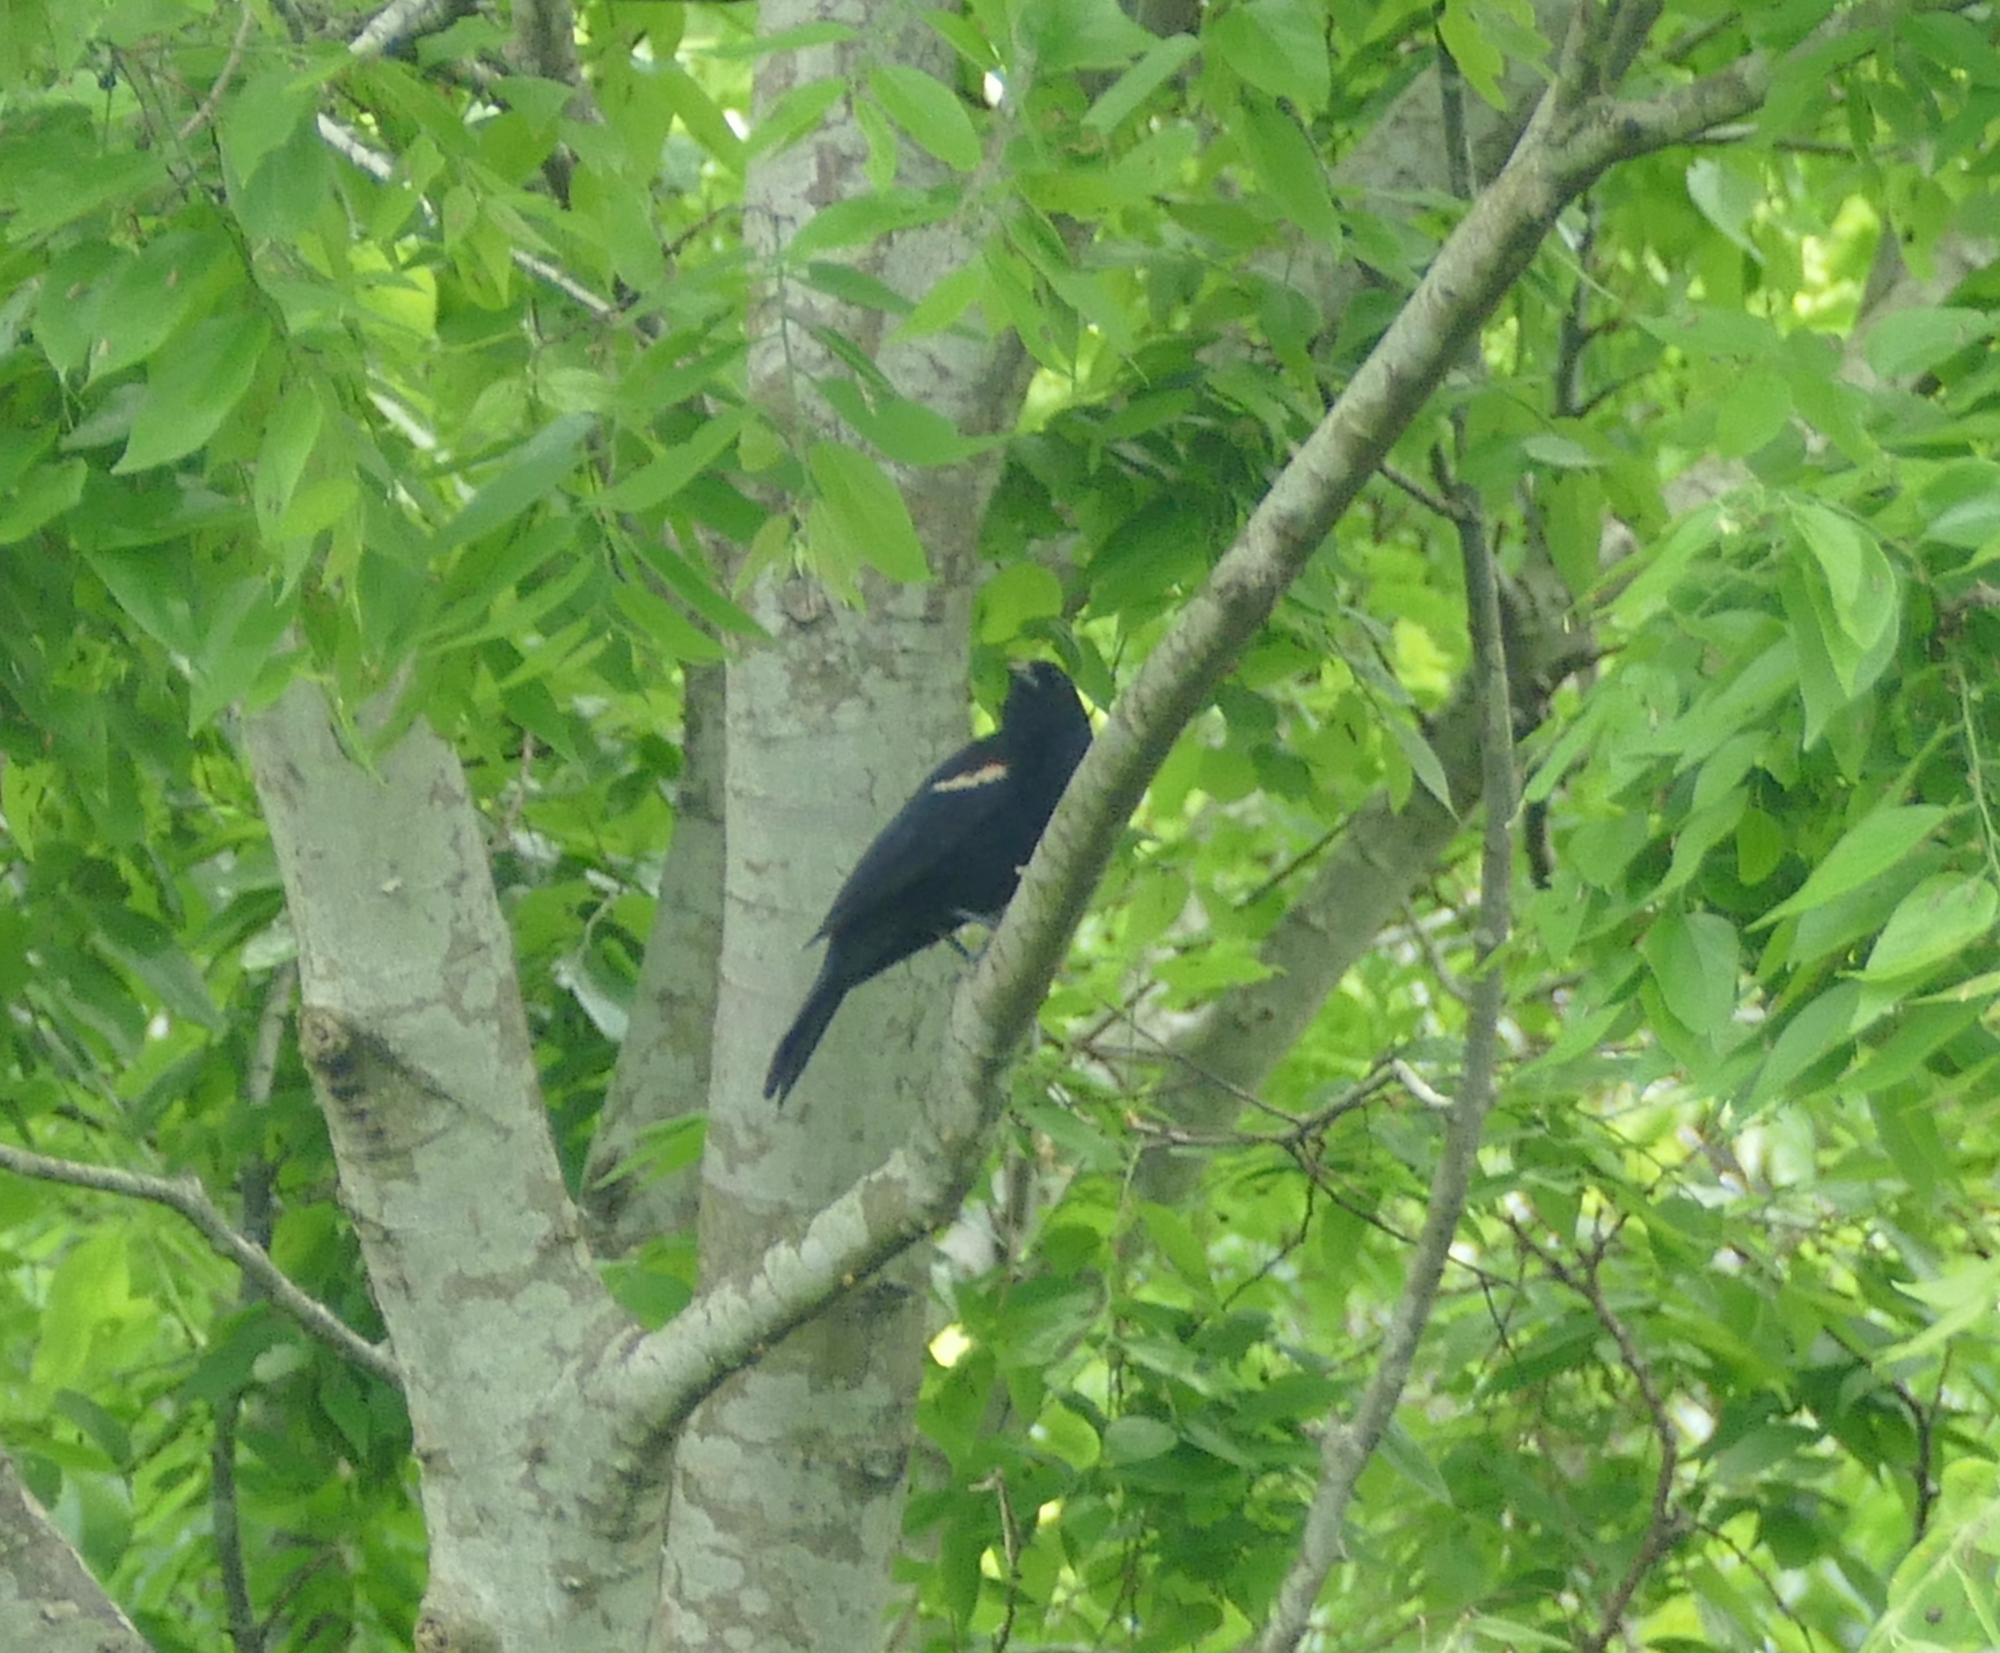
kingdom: Animalia
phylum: Chordata
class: Aves
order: Passeriformes
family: Icteridae
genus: Agelaius
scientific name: Agelaius phoeniceus
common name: Red-winged blackbird
